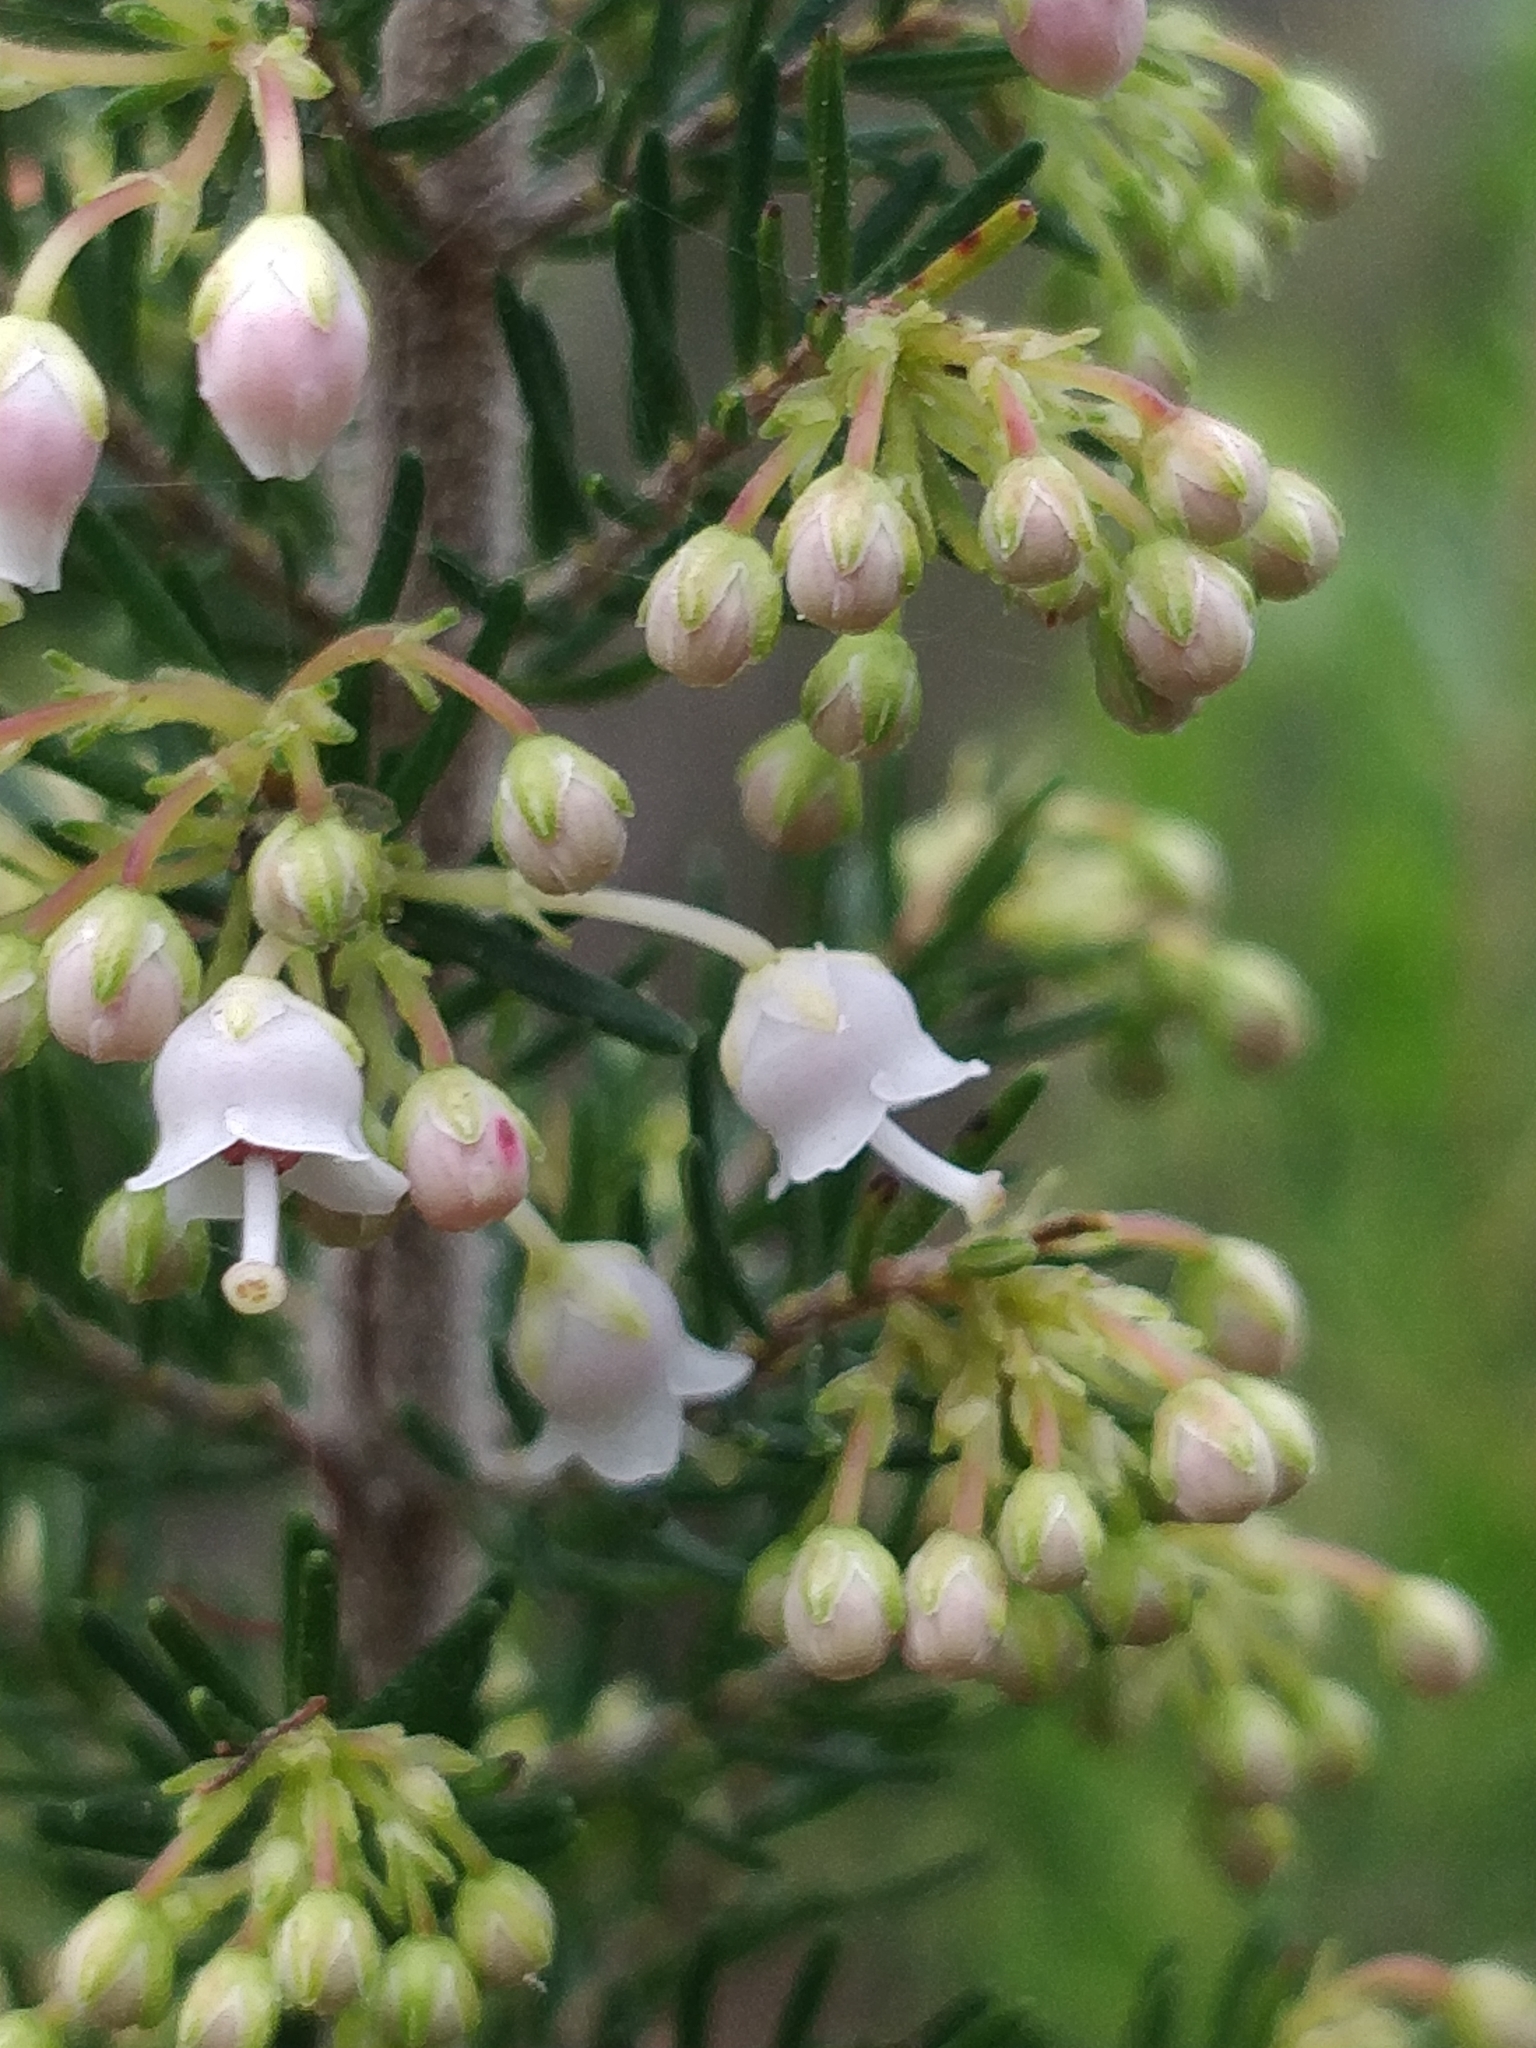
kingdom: Plantae
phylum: Tracheophyta
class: Magnoliopsida
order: Ericales
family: Ericaceae
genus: Erica
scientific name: Erica canariensis
